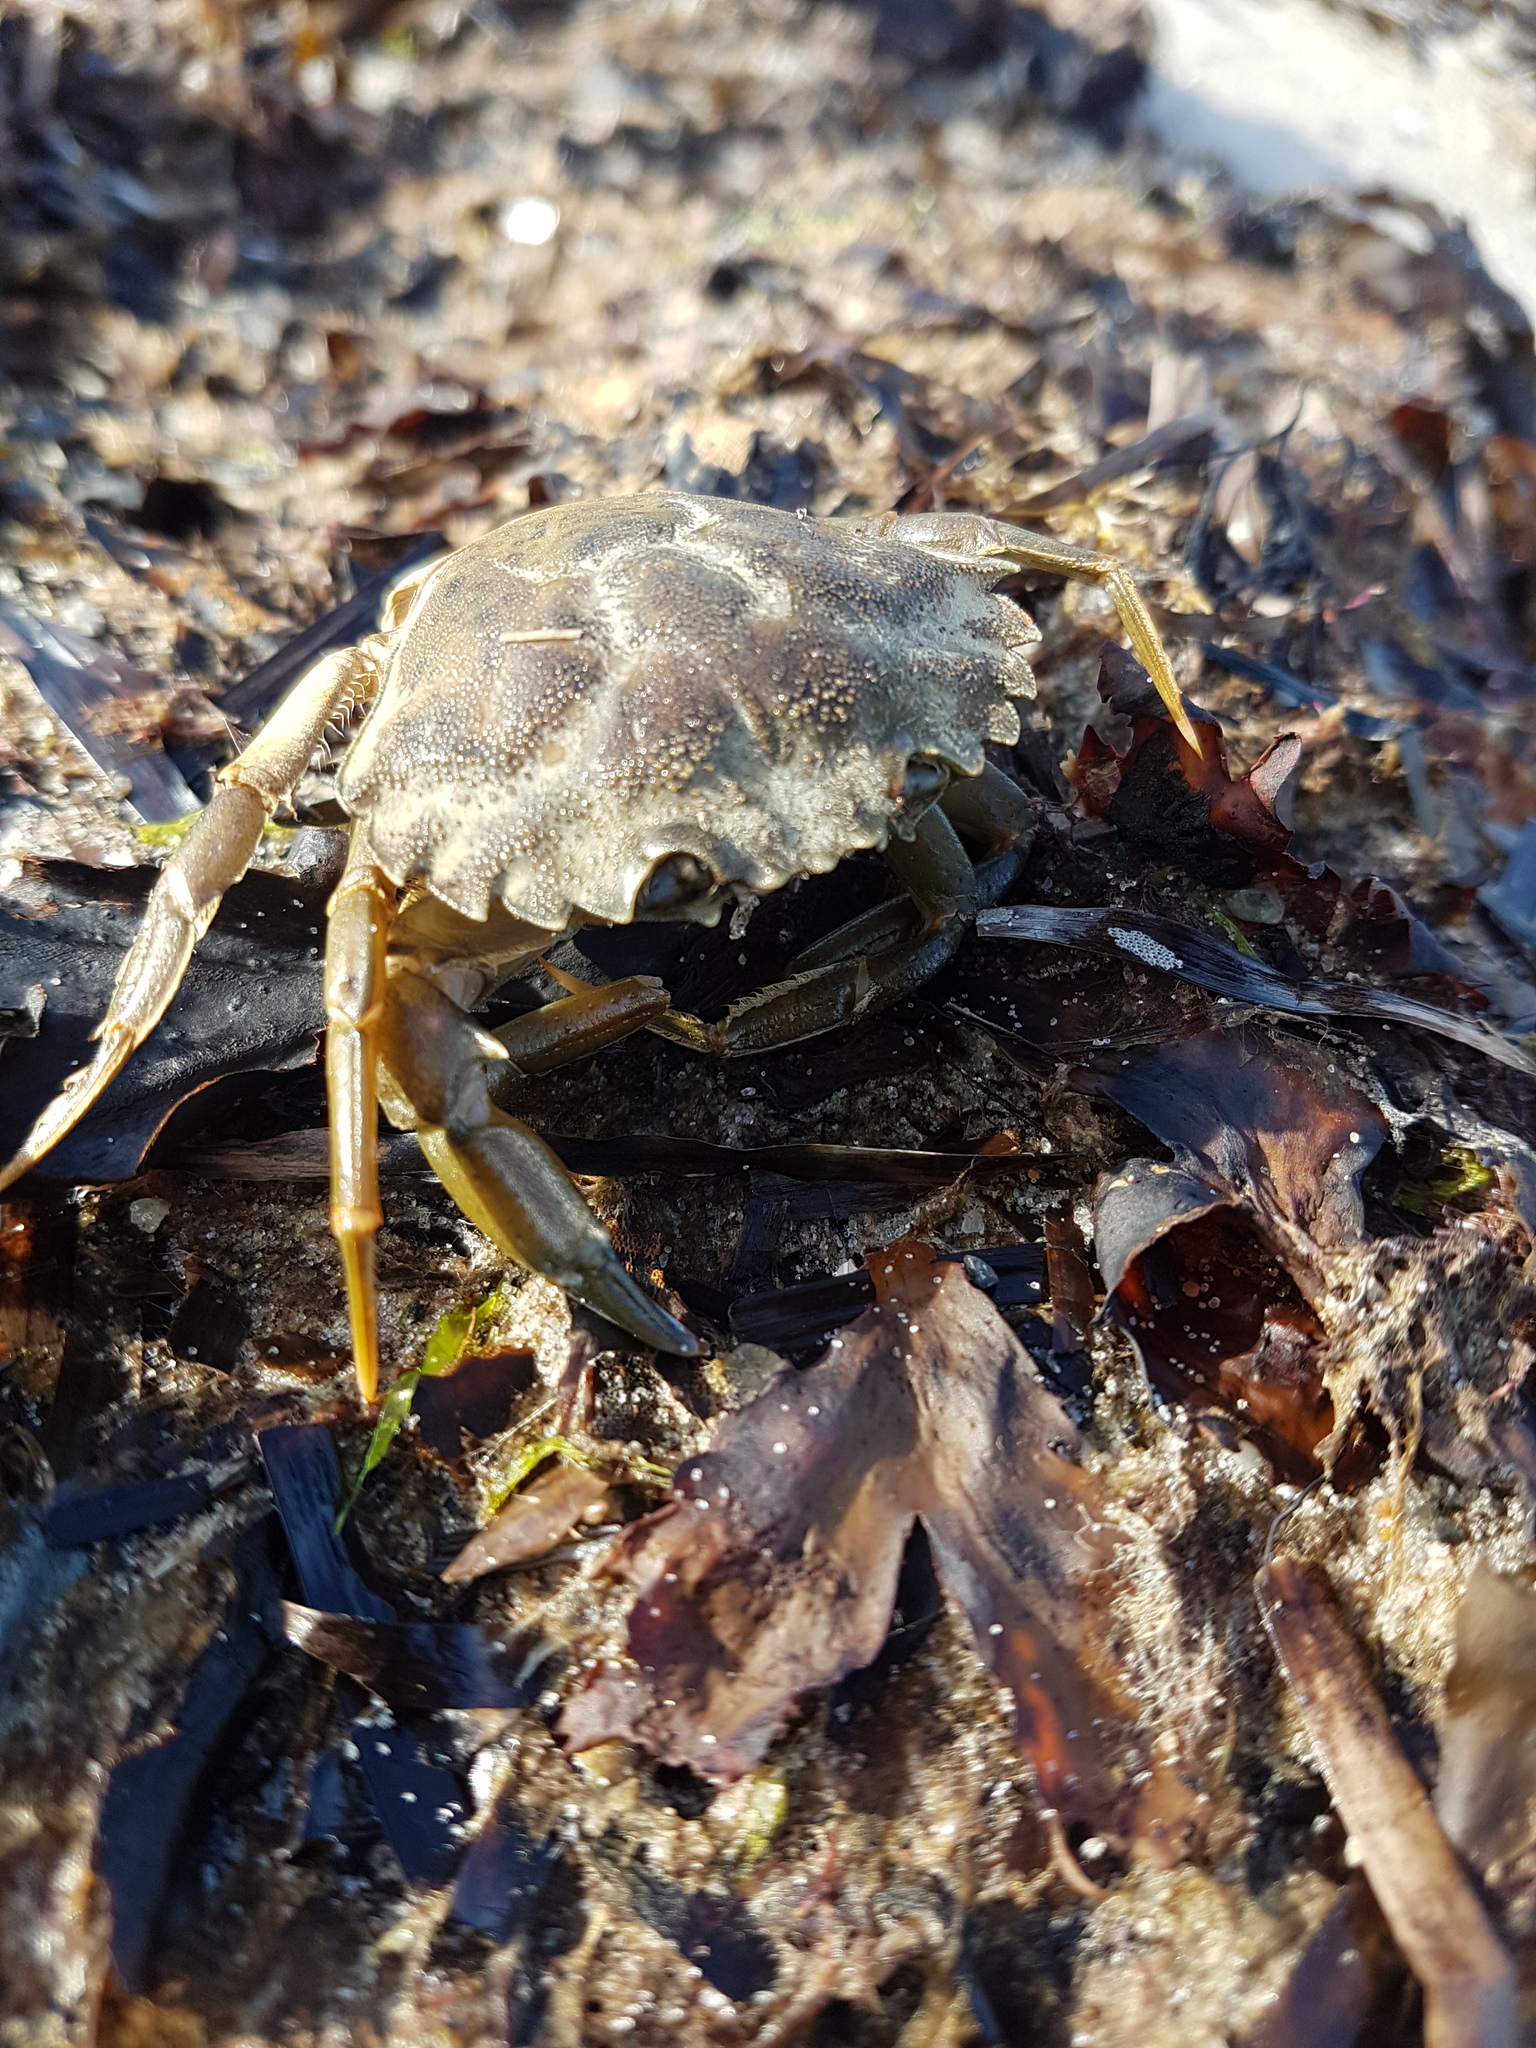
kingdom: Animalia
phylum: Arthropoda
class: Malacostraca
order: Decapoda
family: Carcinidae
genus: Carcinus
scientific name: Carcinus maenas
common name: European green crab
